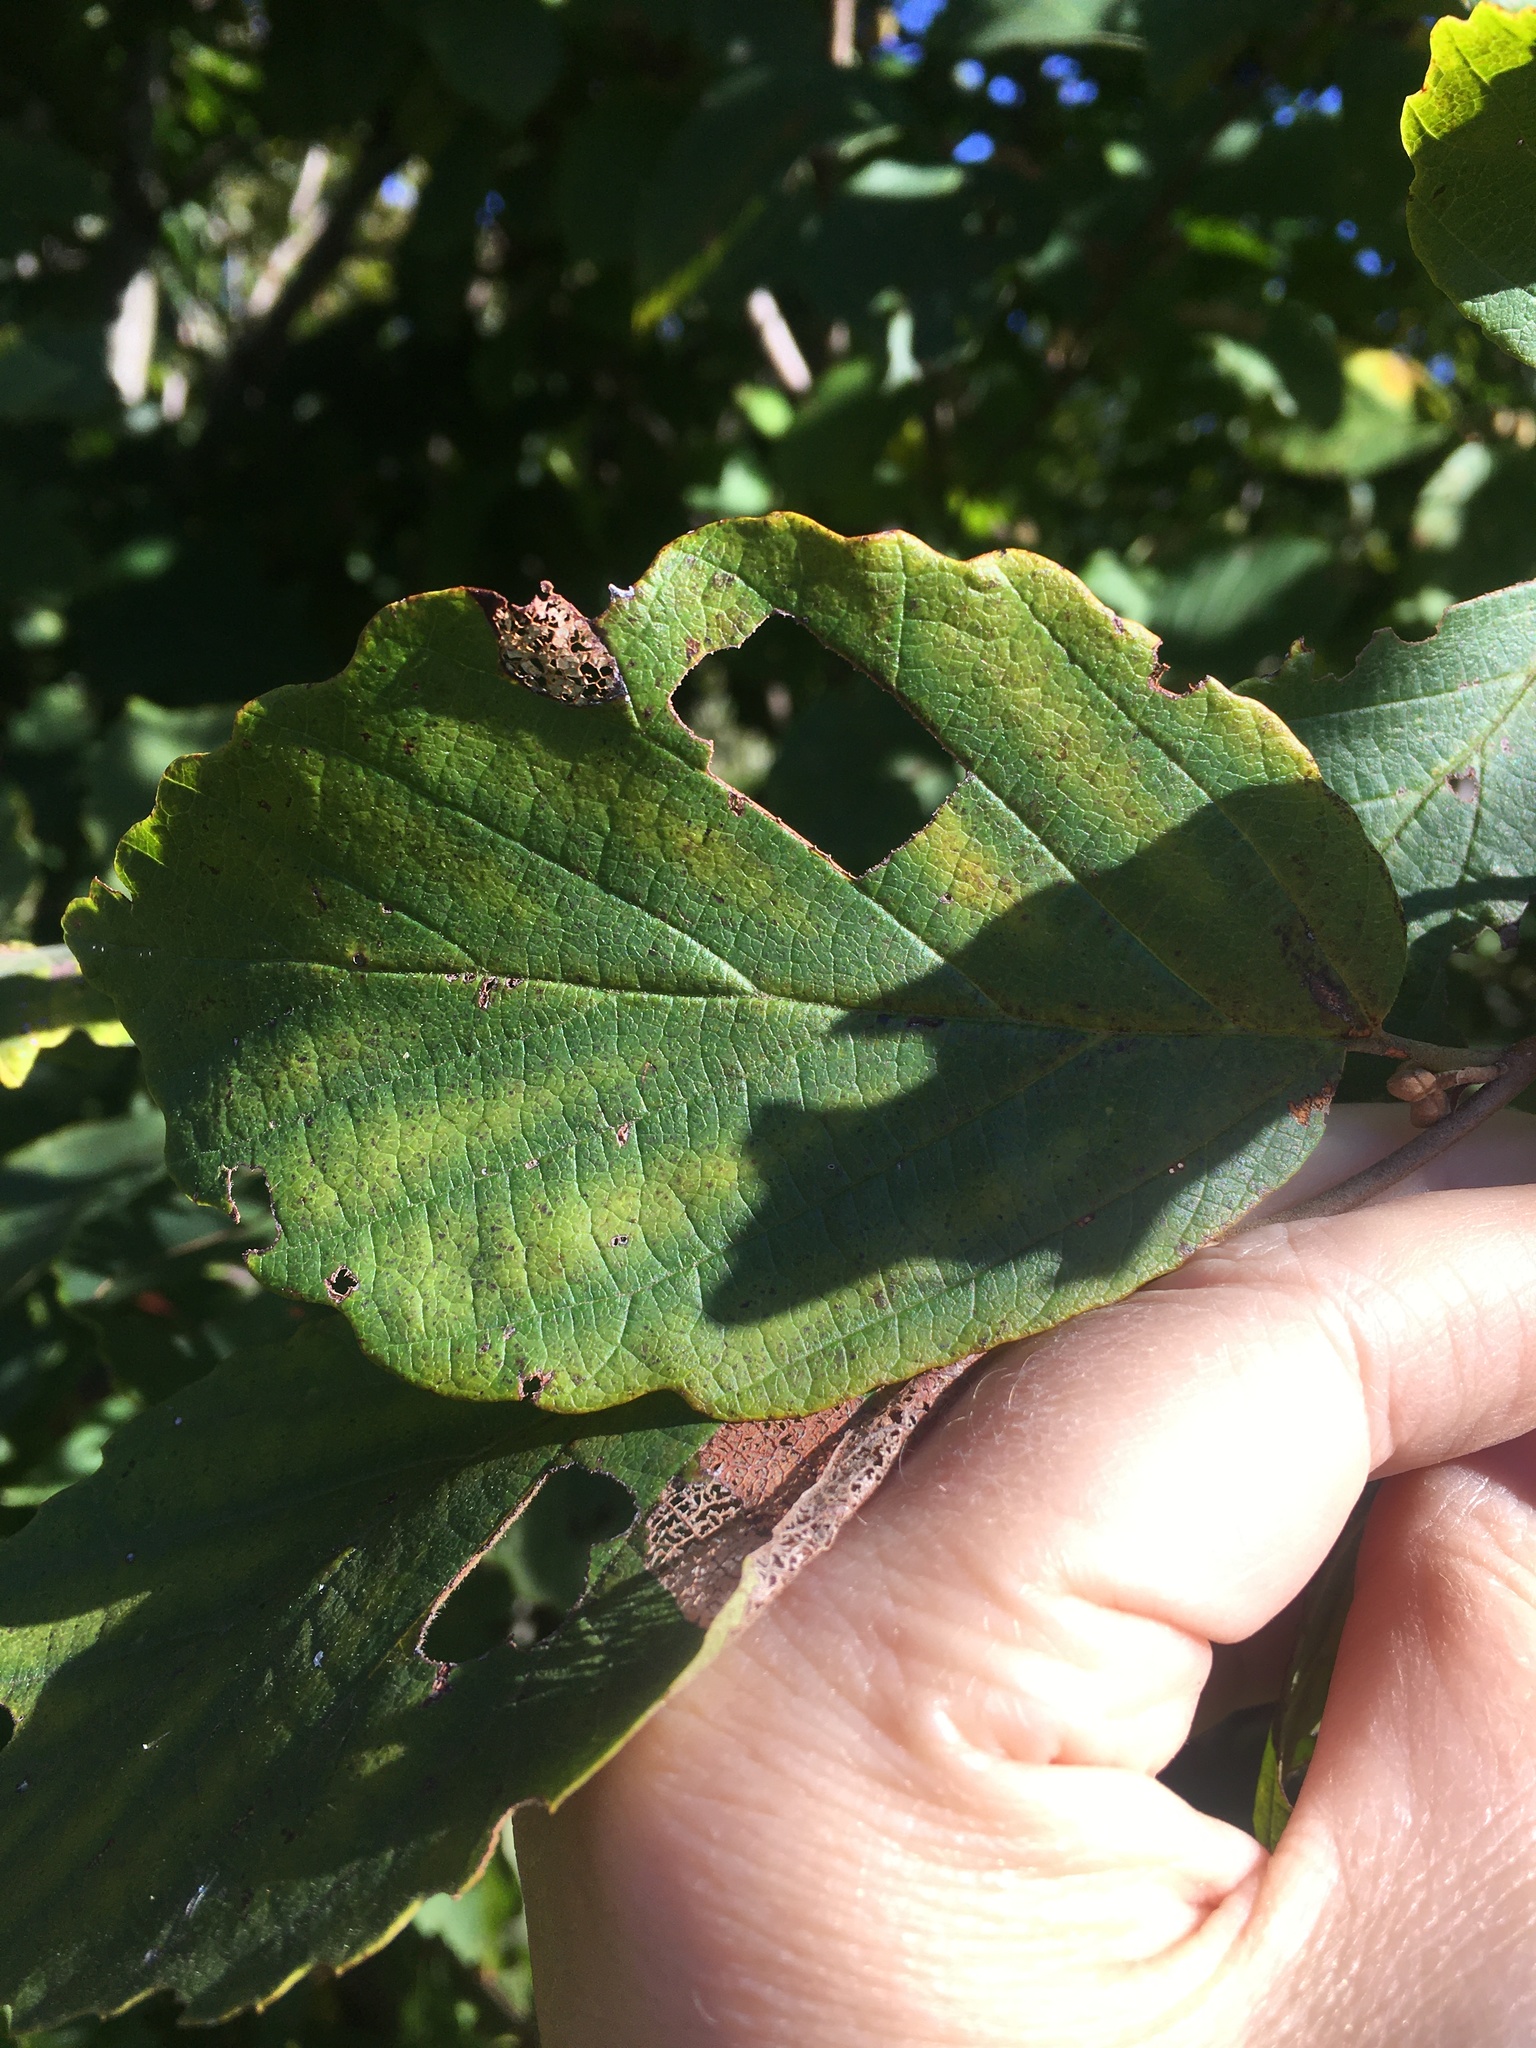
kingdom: Plantae
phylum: Tracheophyta
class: Magnoliopsida
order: Saxifragales
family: Hamamelidaceae
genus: Hamamelis
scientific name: Hamamelis virginiana
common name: Witch-hazel
